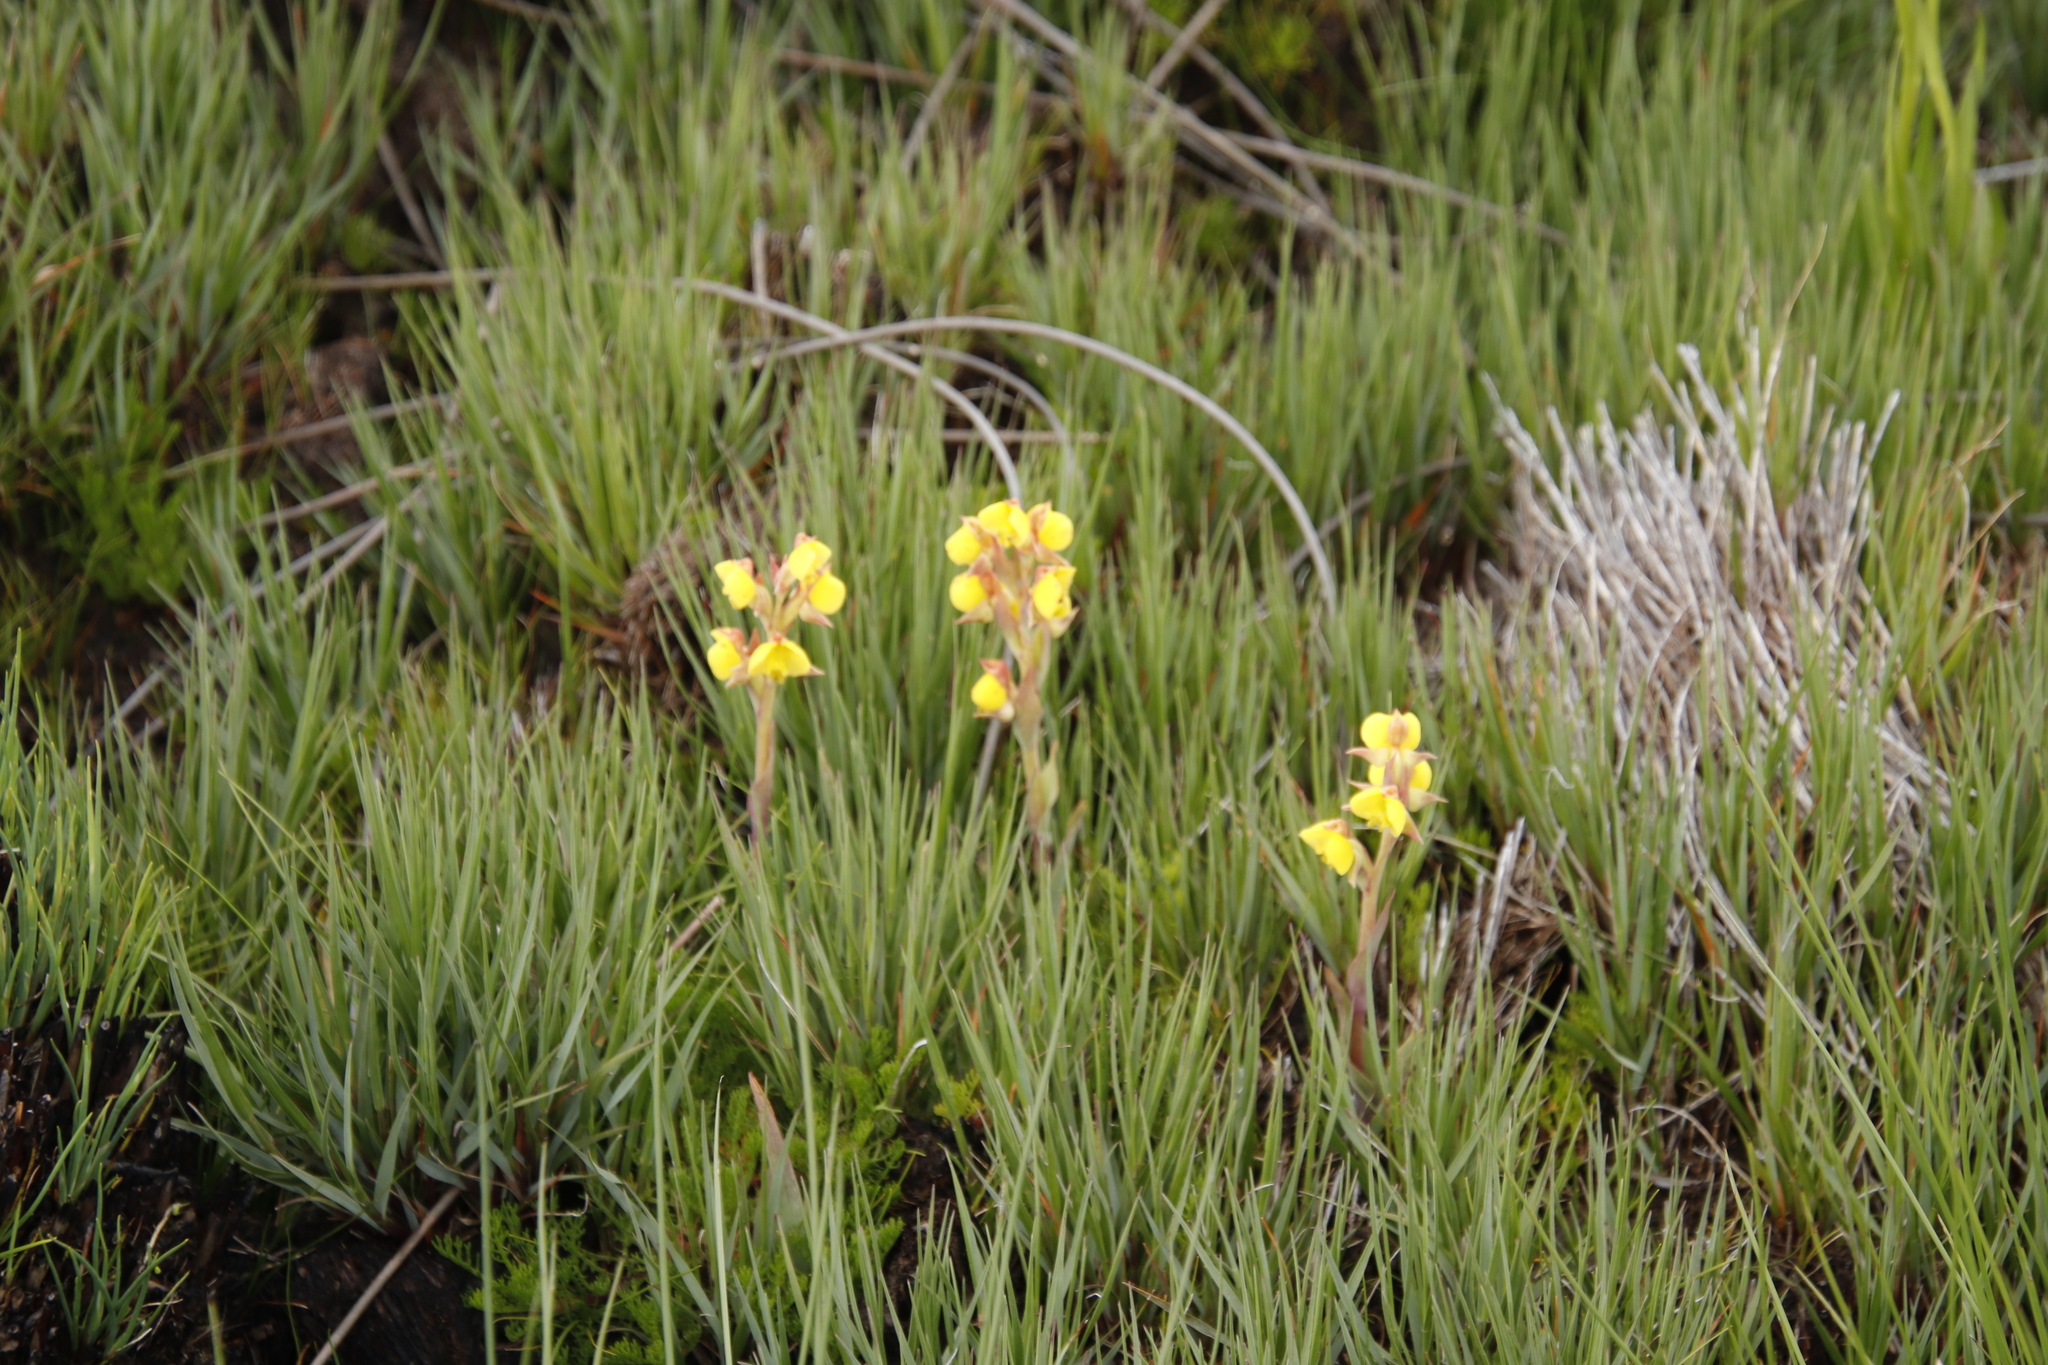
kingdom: Plantae
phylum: Tracheophyta
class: Liliopsida
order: Asparagales
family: Orchidaceae
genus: Pterygodium
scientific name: Pterygodium acutifolium
